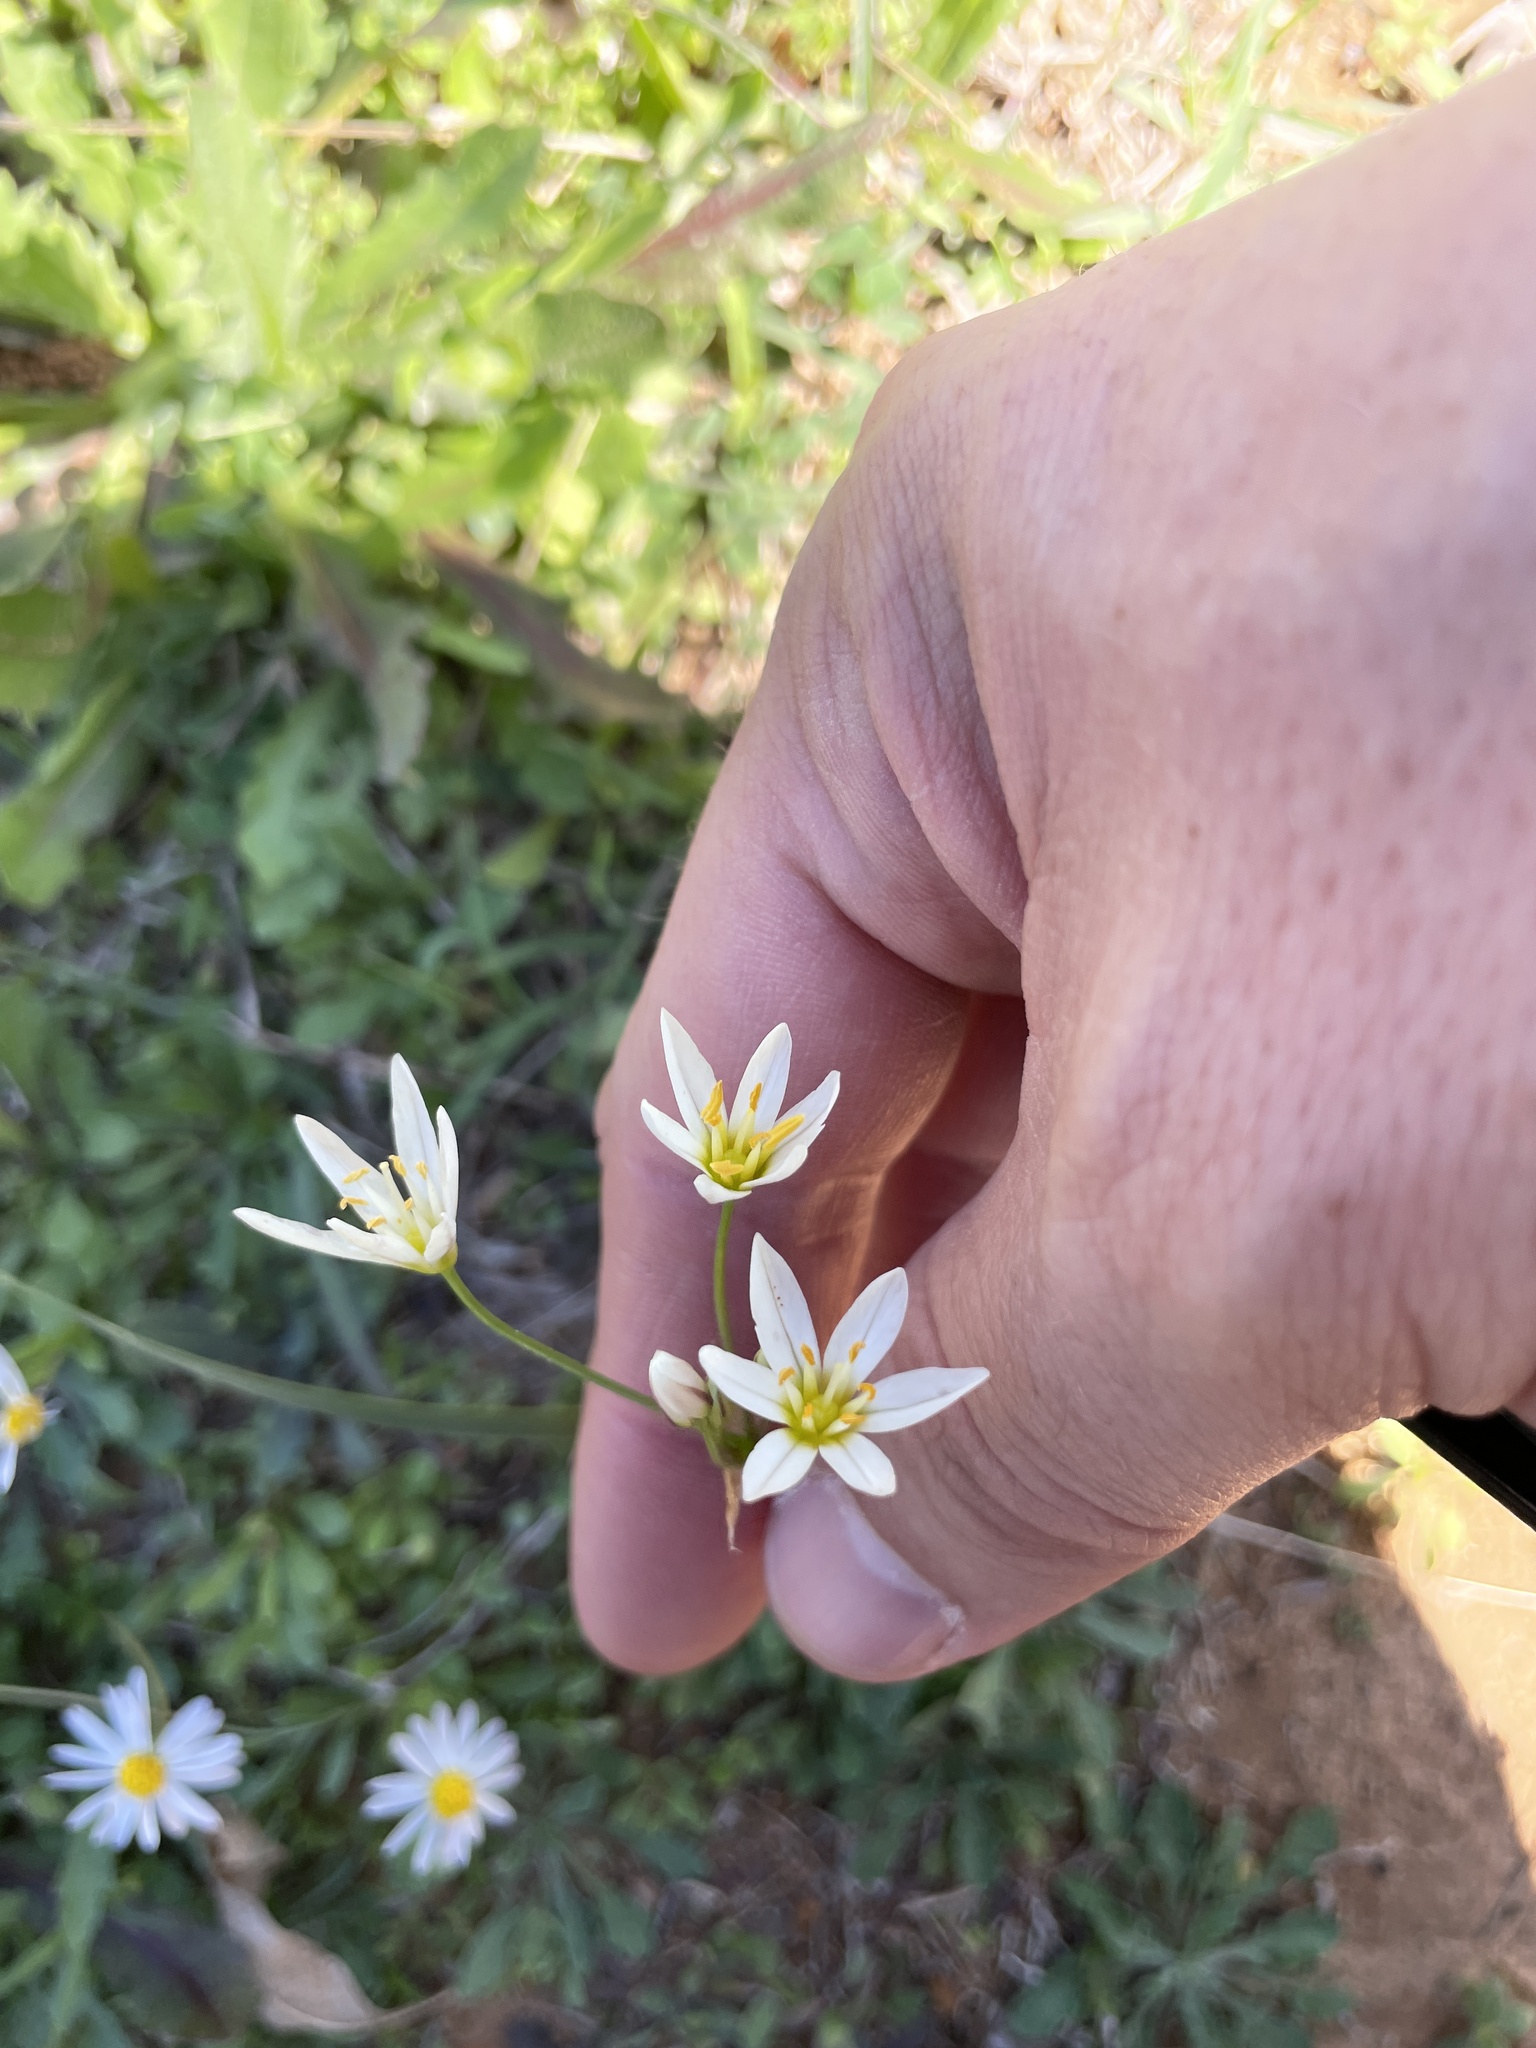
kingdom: Plantae
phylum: Tracheophyta
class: Liliopsida
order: Asparagales
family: Amaryllidaceae
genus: Nothoscordum
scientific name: Nothoscordum bivalve
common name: Crow-poison
